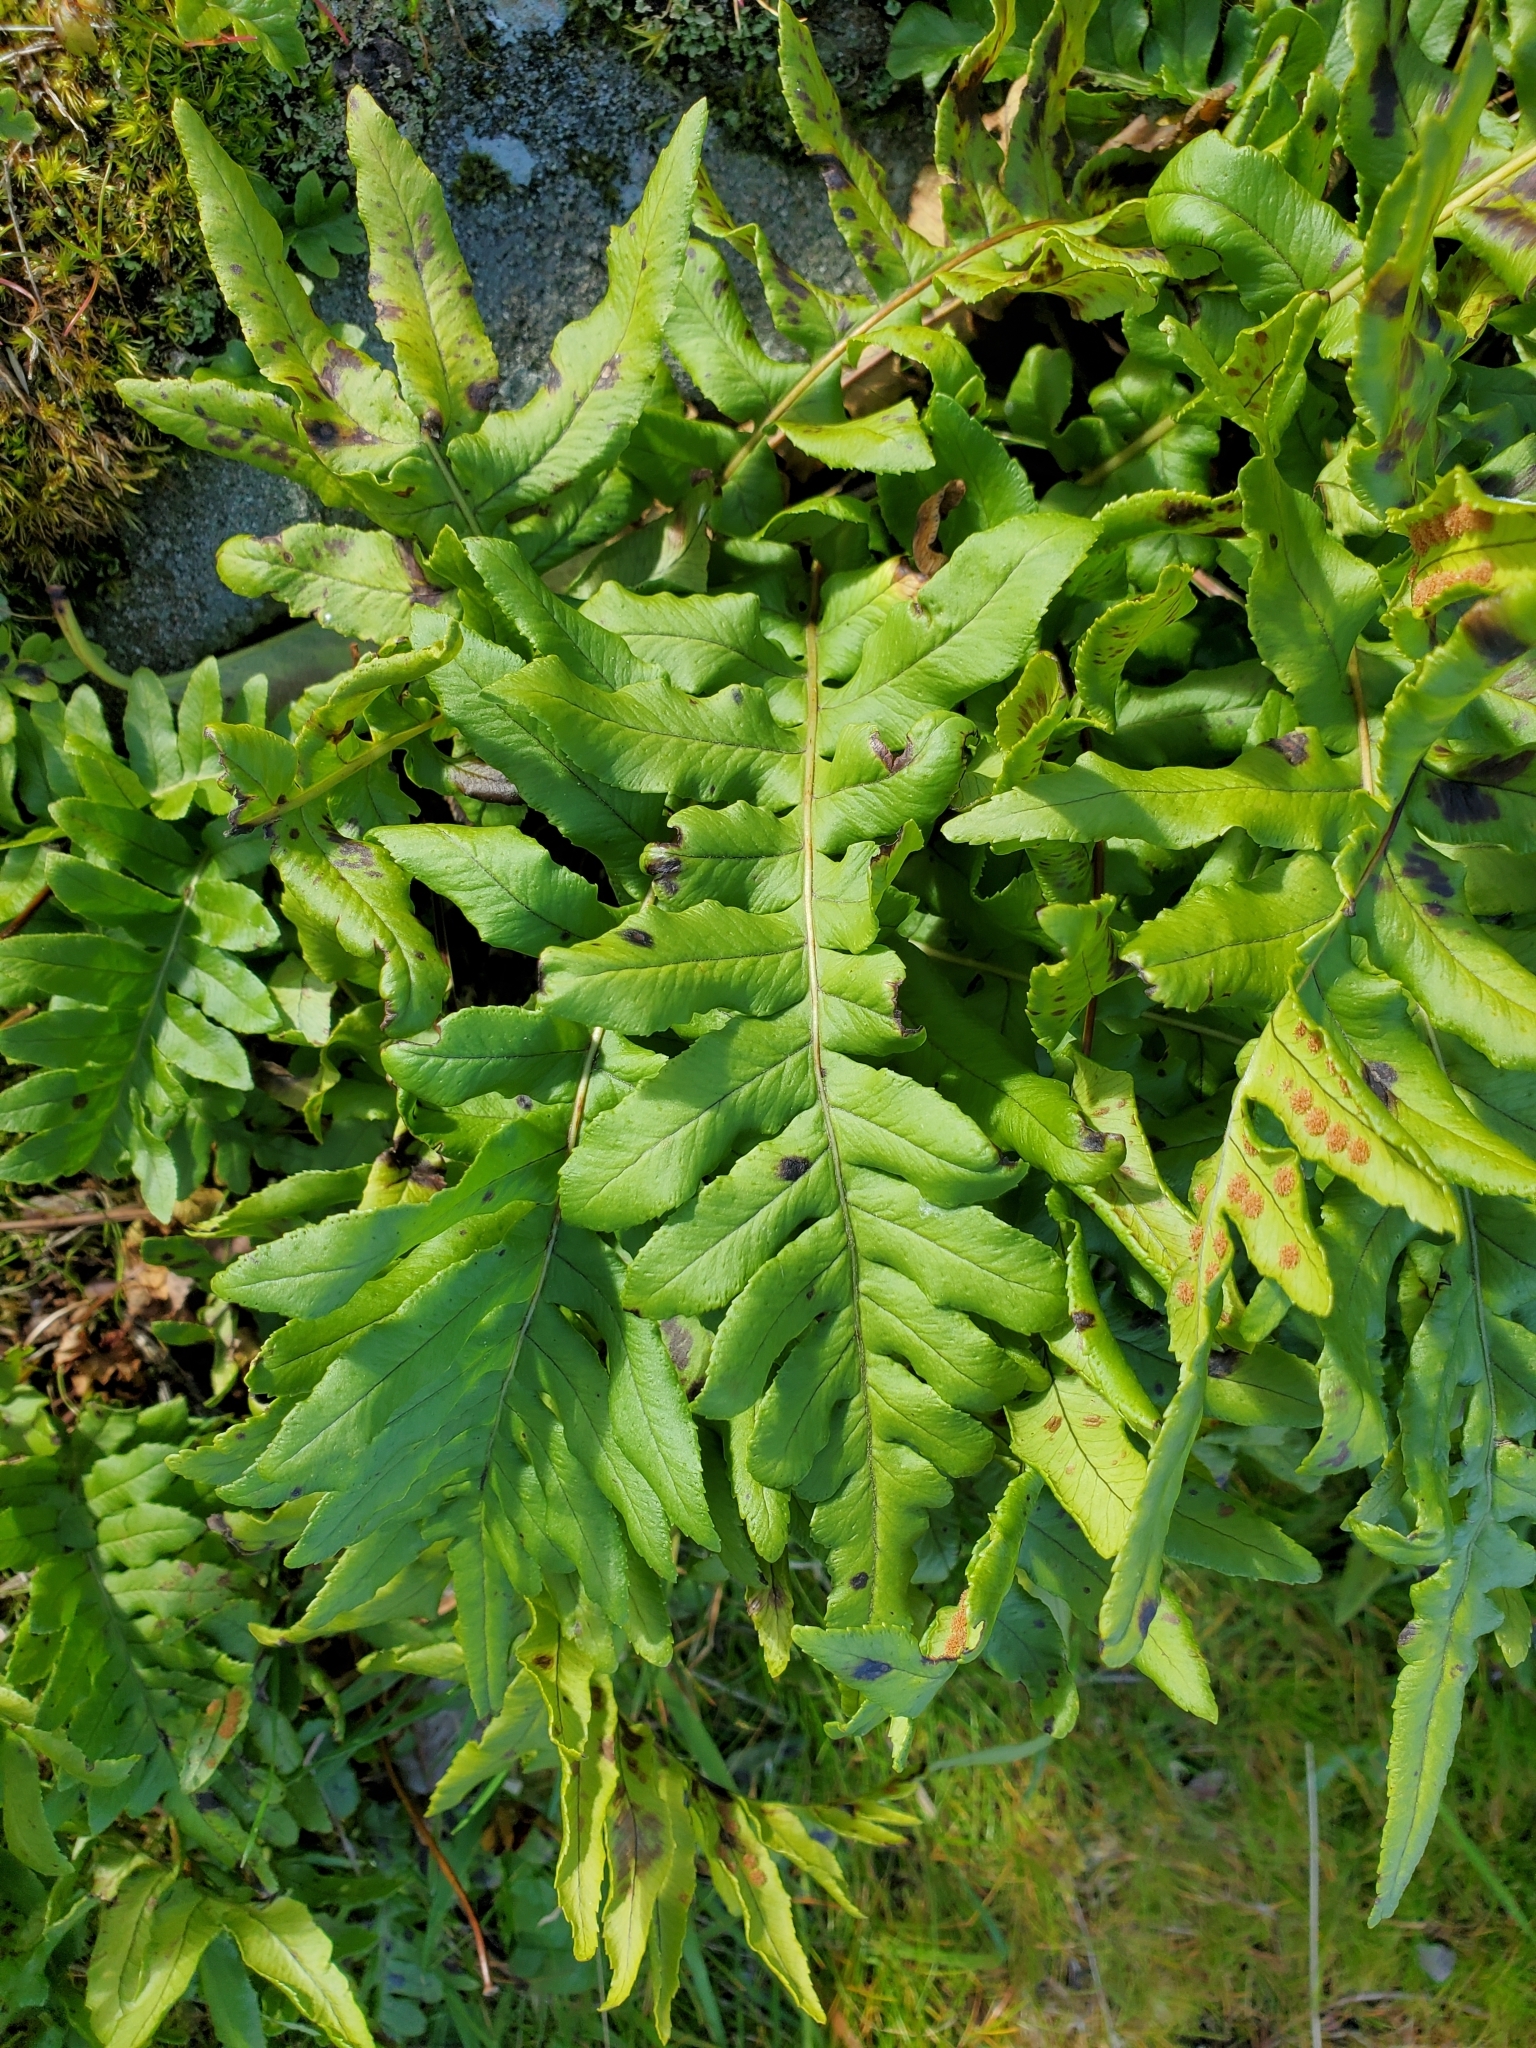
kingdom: Plantae
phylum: Tracheophyta
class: Polypodiopsida
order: Polypodiales
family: Polypodiaceae
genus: Polypodium
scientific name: Polypodium glycyrrhiza
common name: Licorice fern
